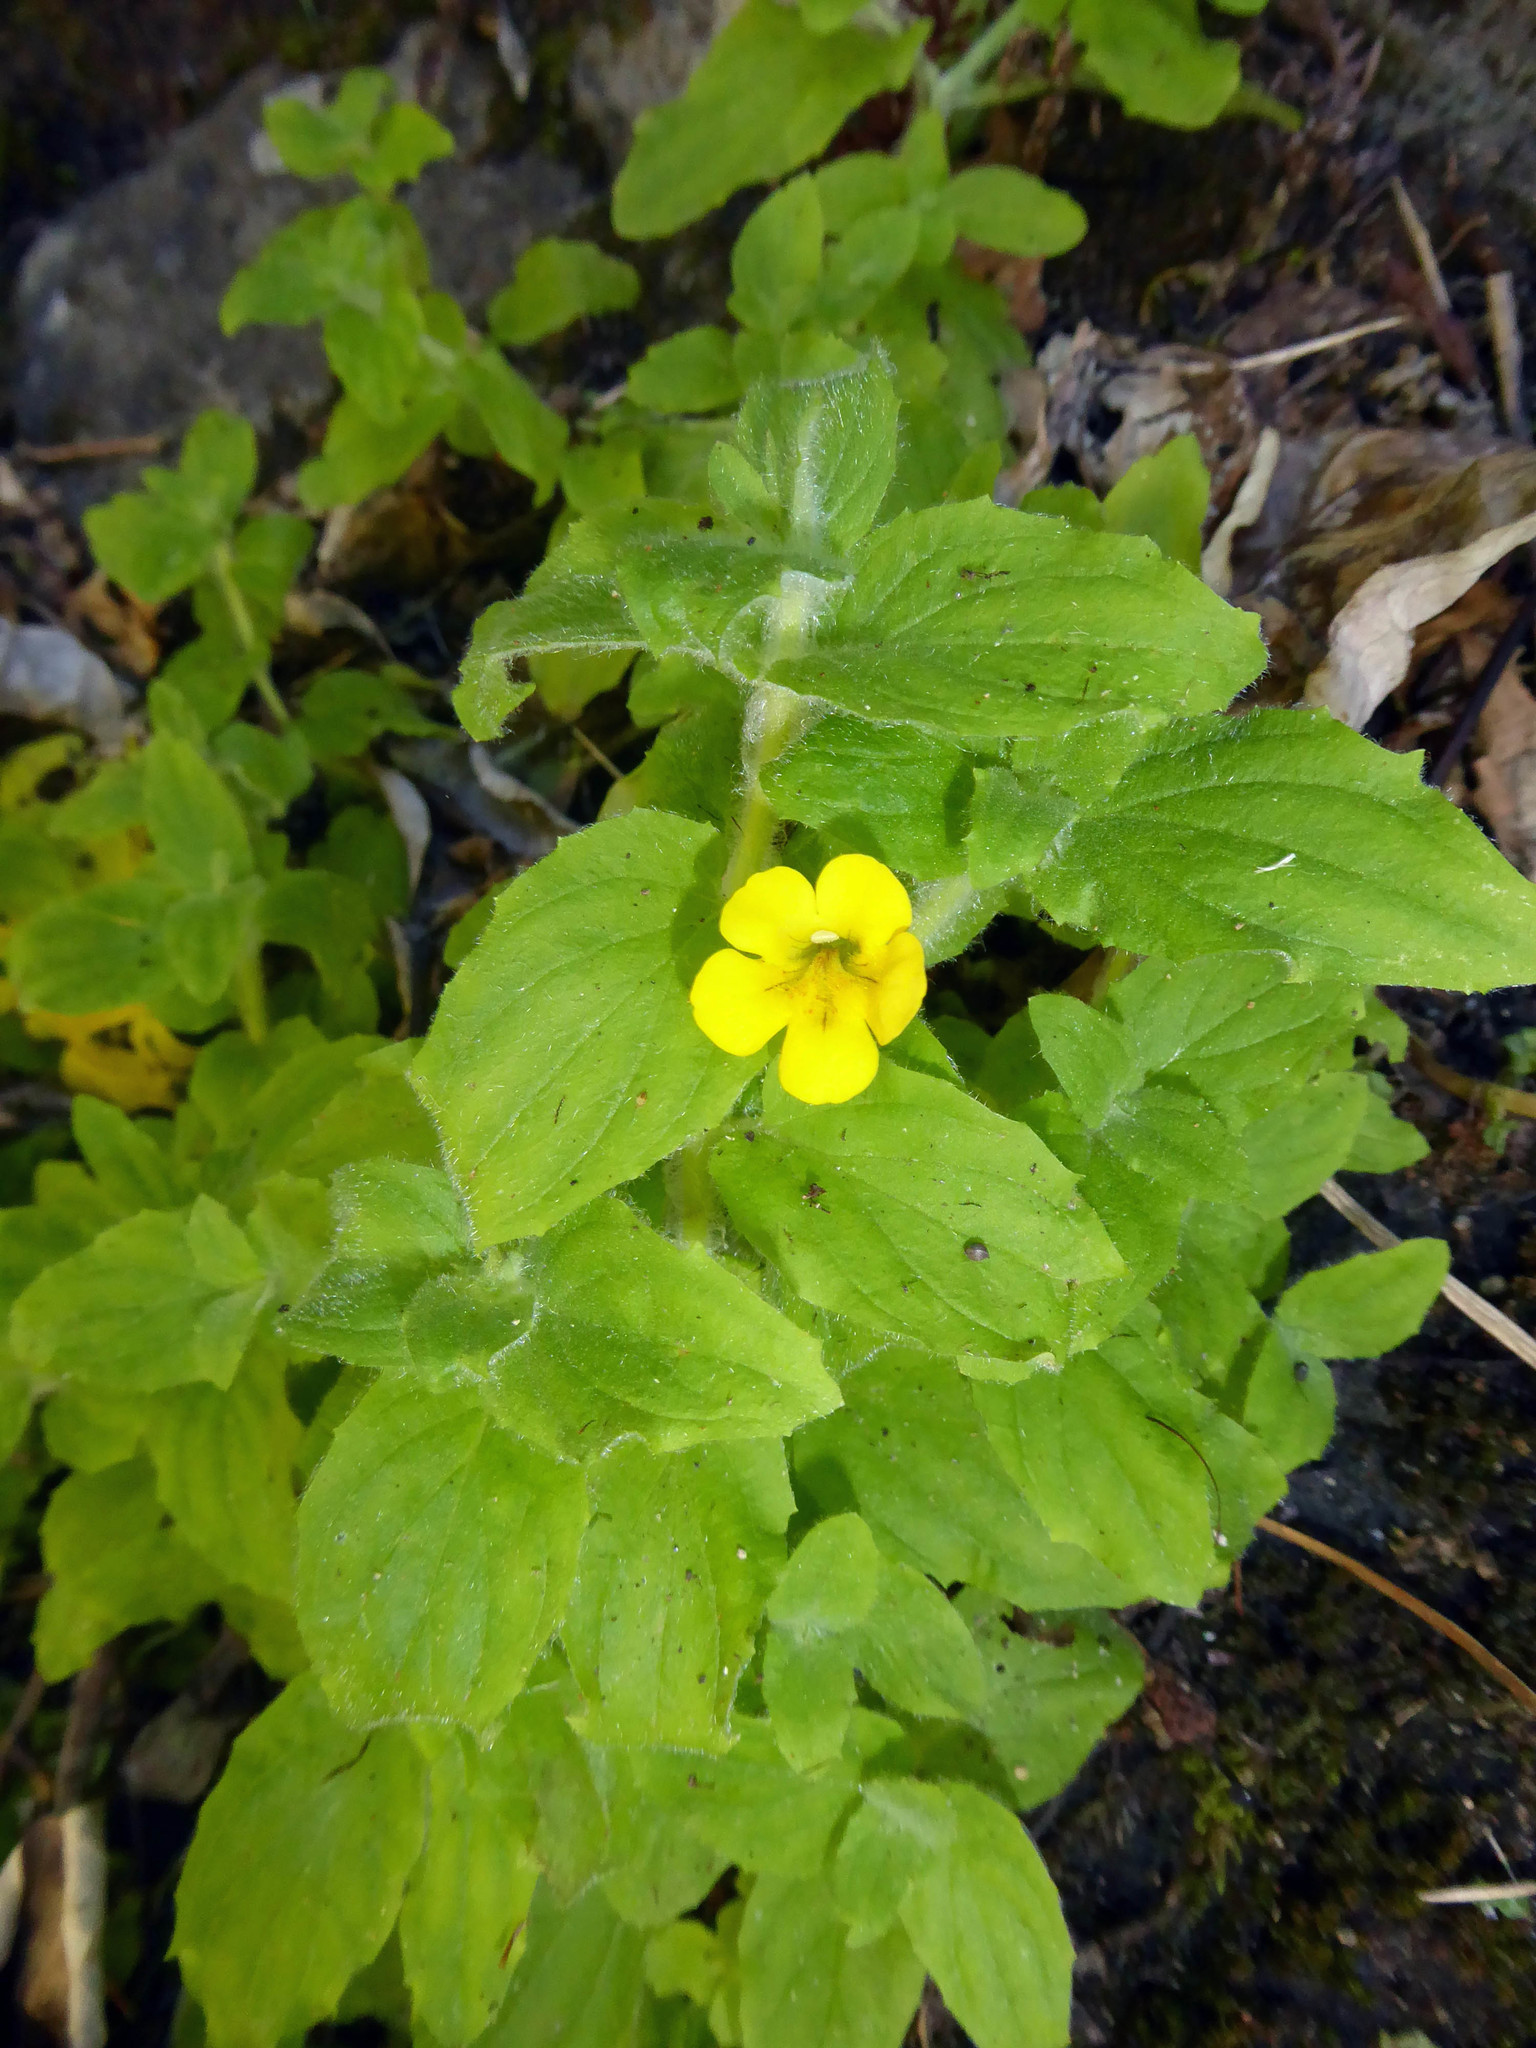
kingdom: Plantae
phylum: Tracheophyta
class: Magnoliopsida
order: Lamiales
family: Phrymaceae
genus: Erythranthe
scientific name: Erythranthe moschata
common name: Muskflower
